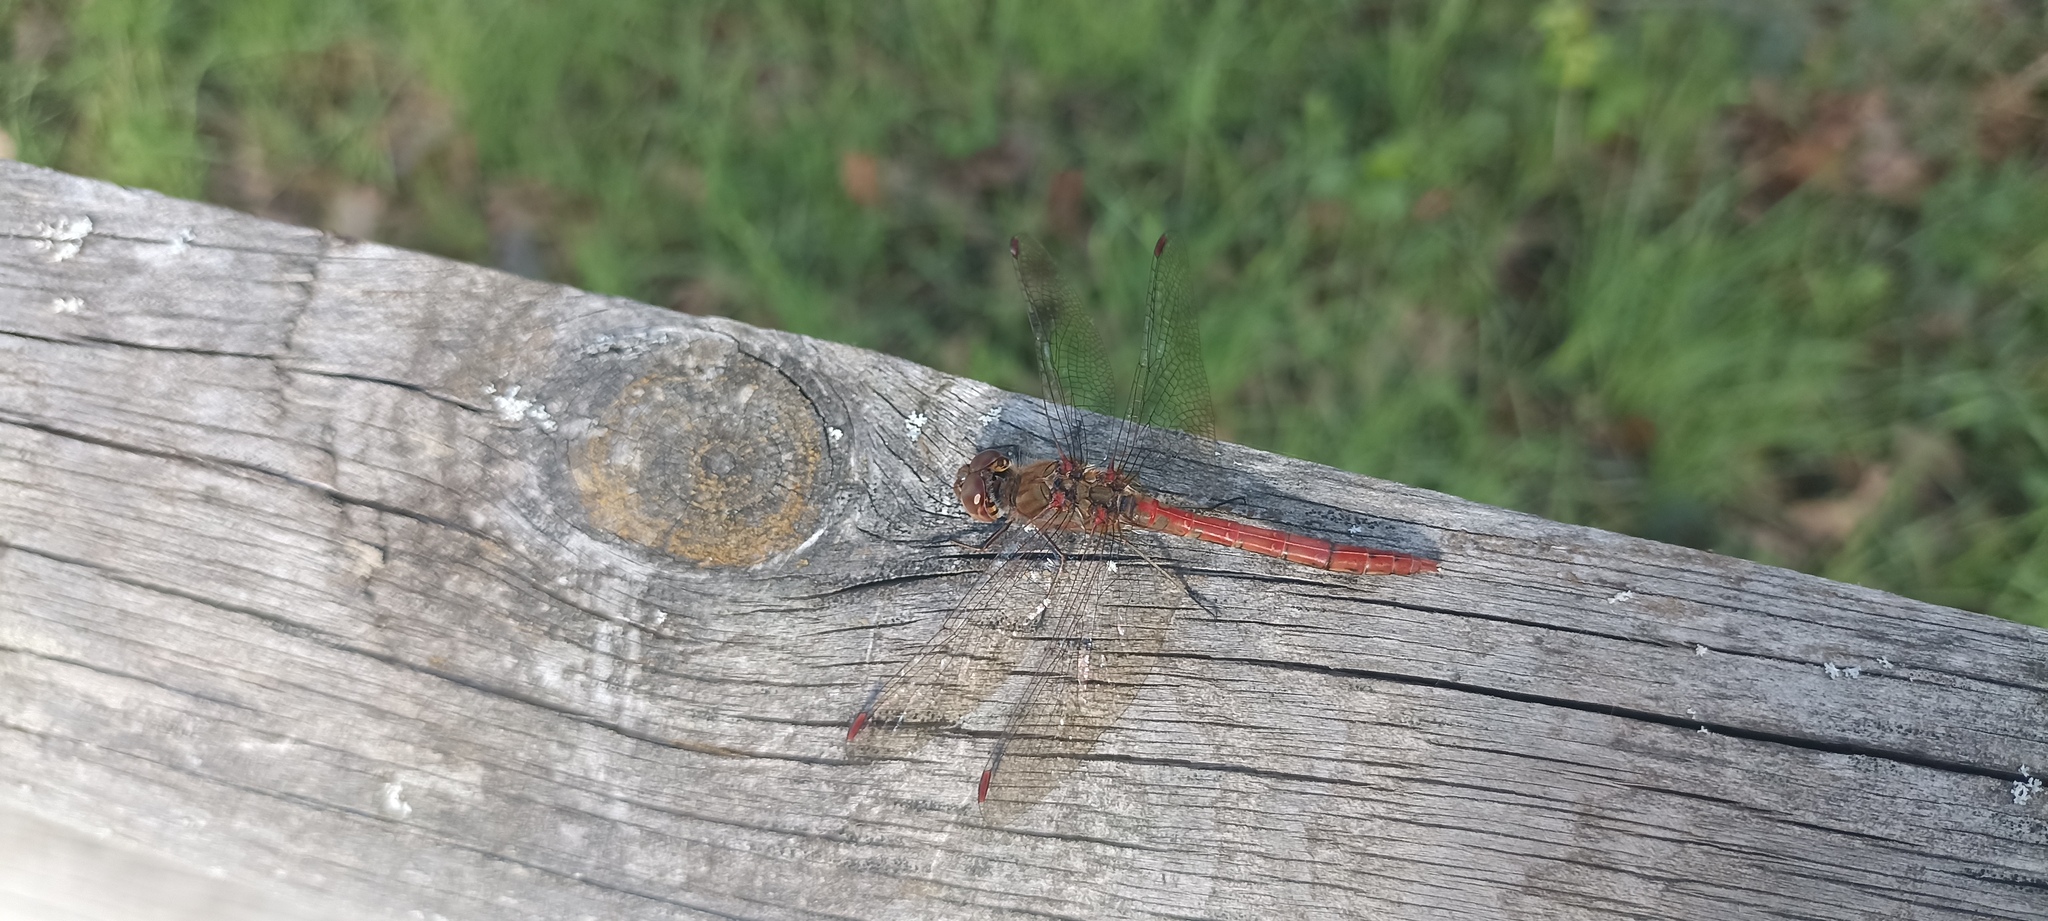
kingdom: Animalia
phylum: Arthropoda
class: Insecta
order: Odonata
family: Libellulidae
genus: Sympetrum
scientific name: Sympetrum striolatum
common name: Common darter
